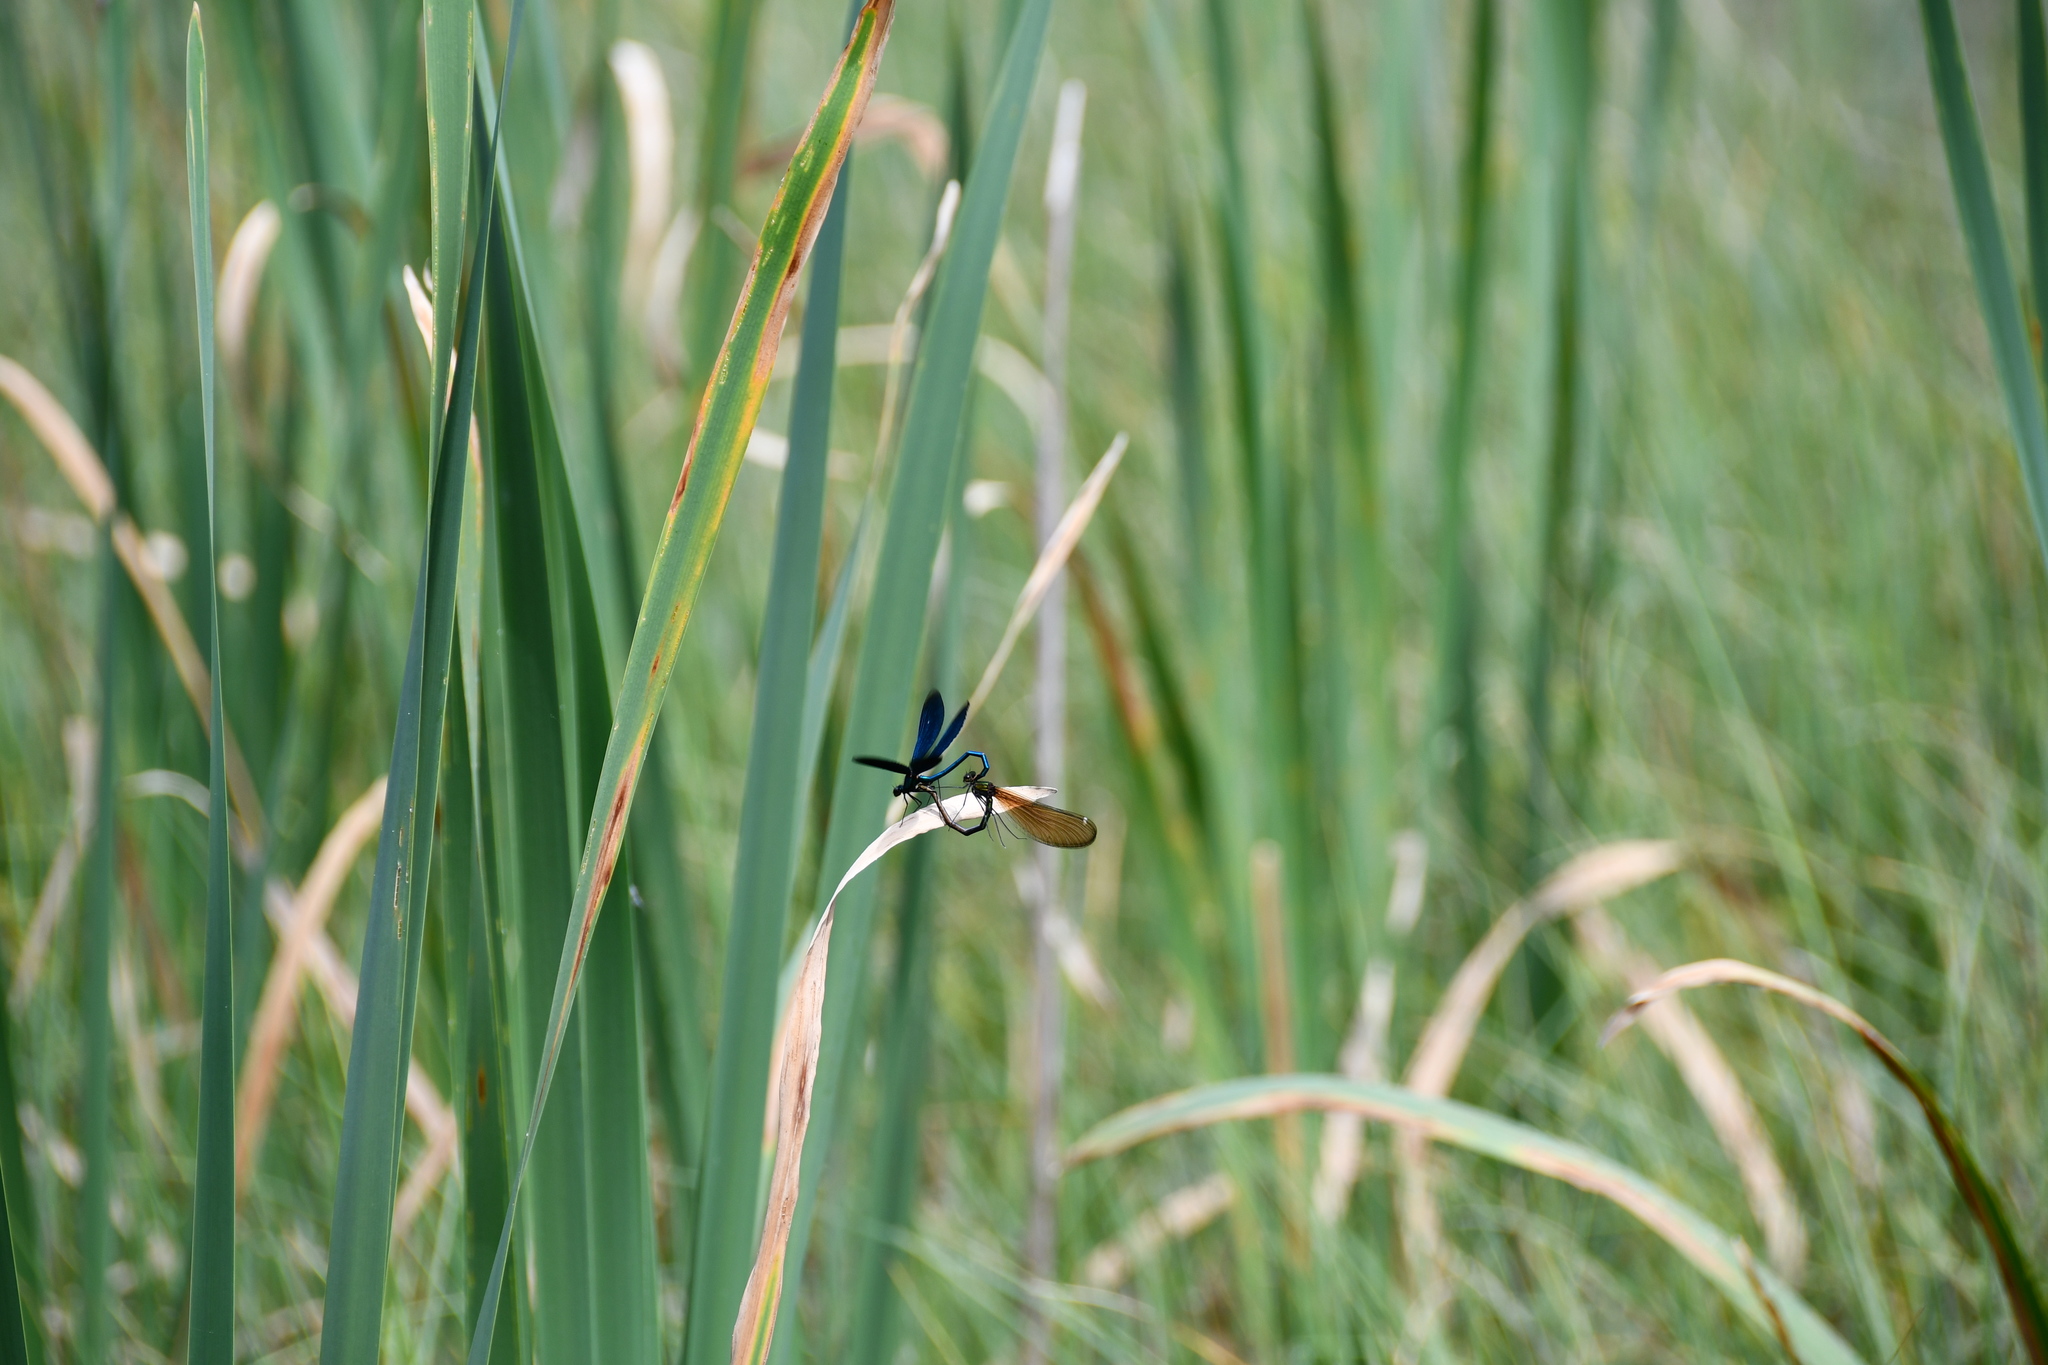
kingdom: Animalia
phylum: Arthropoda
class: Insecta
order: Odonata
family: Calopterygidae
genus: Calopteryx
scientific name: Calopteryx virgo
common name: Beautiful demoiselle
